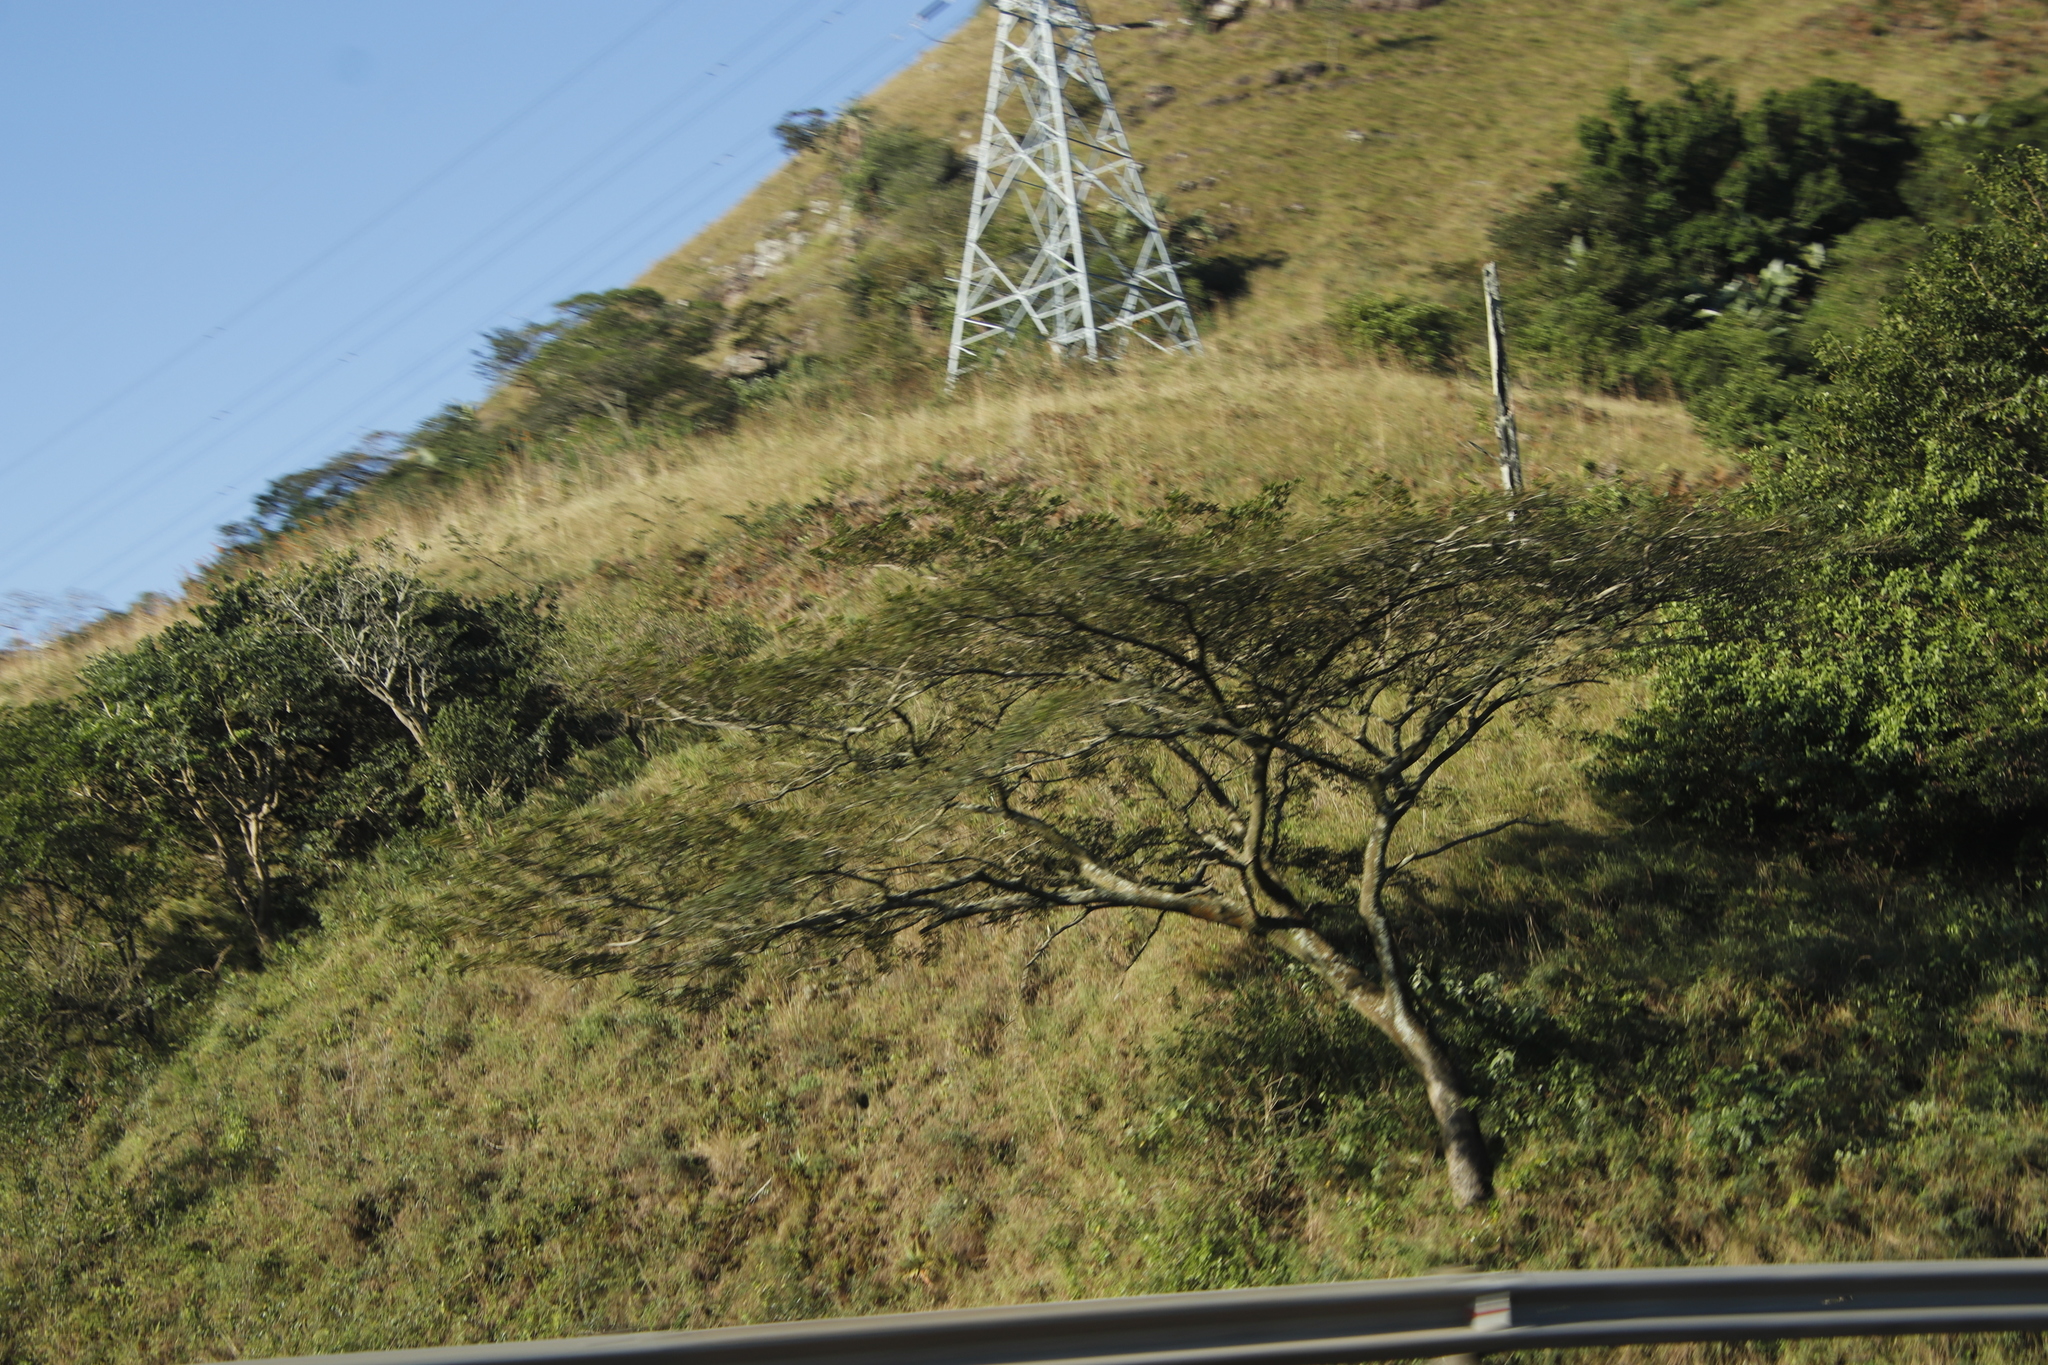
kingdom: Plantae
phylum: Tracheophyta
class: Magnoliopsida
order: Fabales
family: Fabaceae
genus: Albizia
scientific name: Albizia adianthifolia
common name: West african albizia
